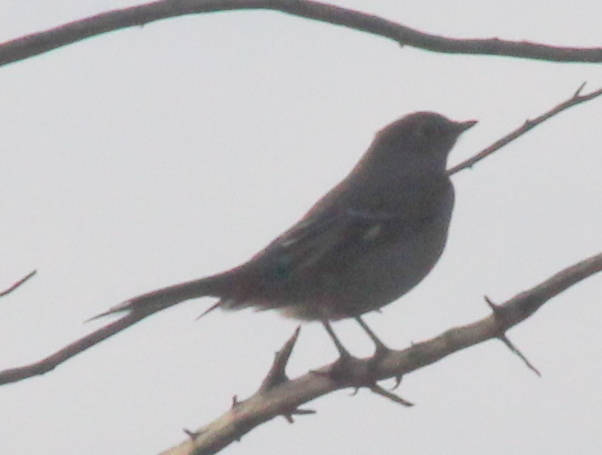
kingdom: Animalia
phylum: Chordata
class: Aves
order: Passeriformes
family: Turdidae
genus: Myadestes
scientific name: Myadestes townsendi
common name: Townsend's solitaire
